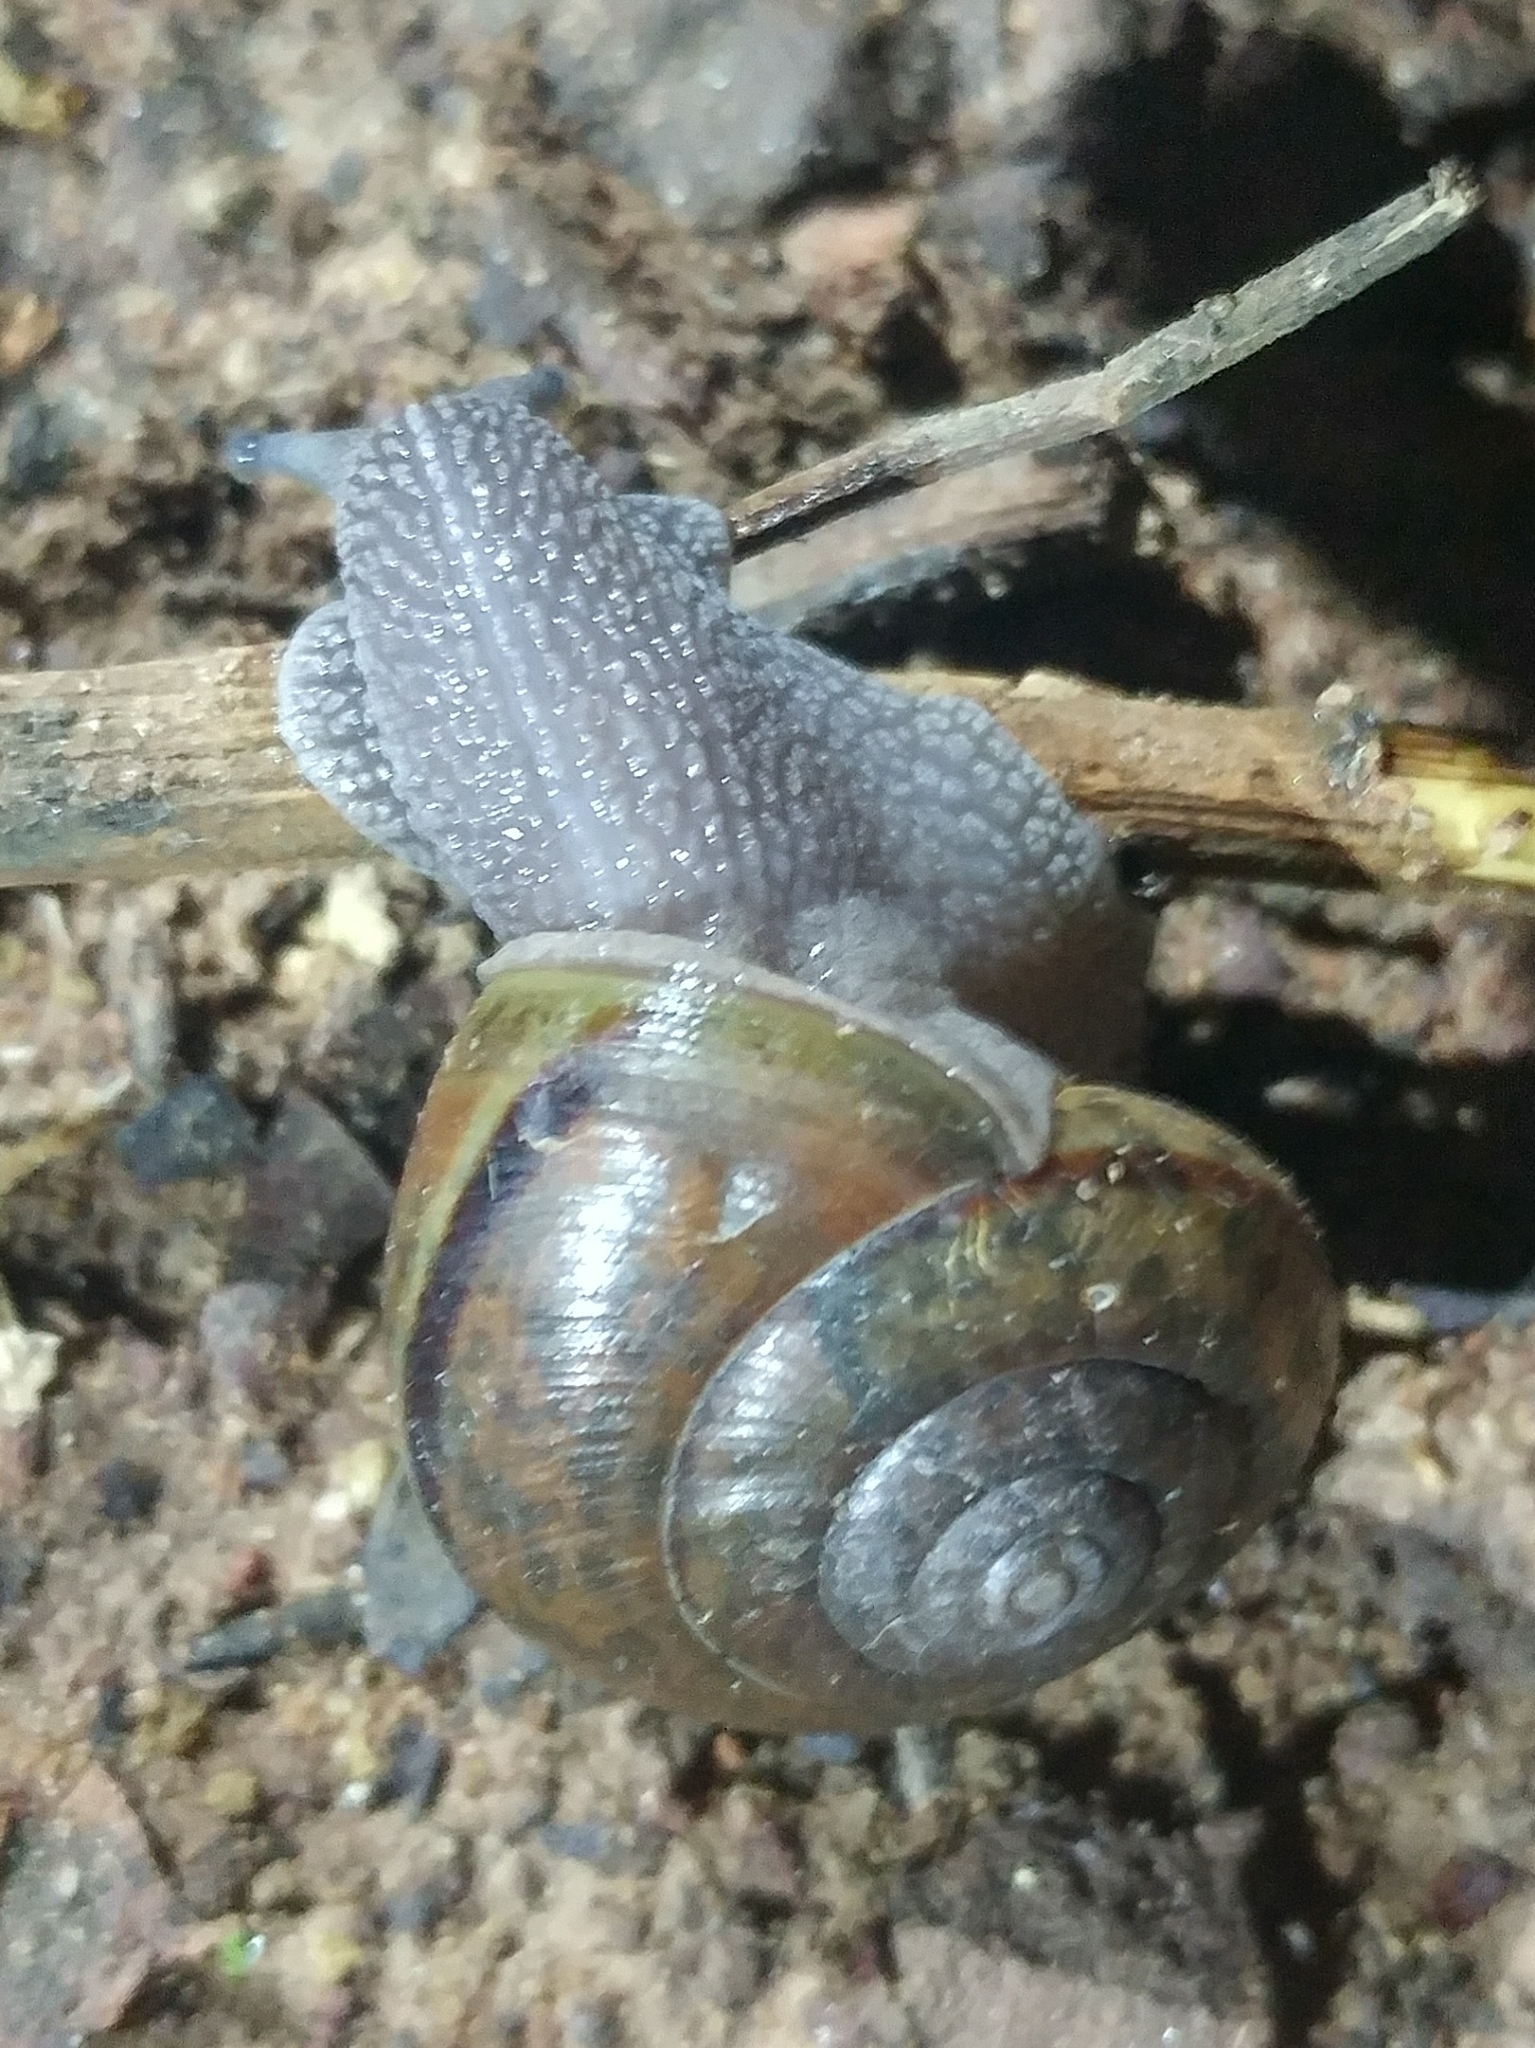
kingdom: Animalia
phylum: Mollusca
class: Gastropoda
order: Stylommatophora
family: Xanthonychidae
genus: Helminthoglypta
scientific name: Helminthoglypta phlyctaena
